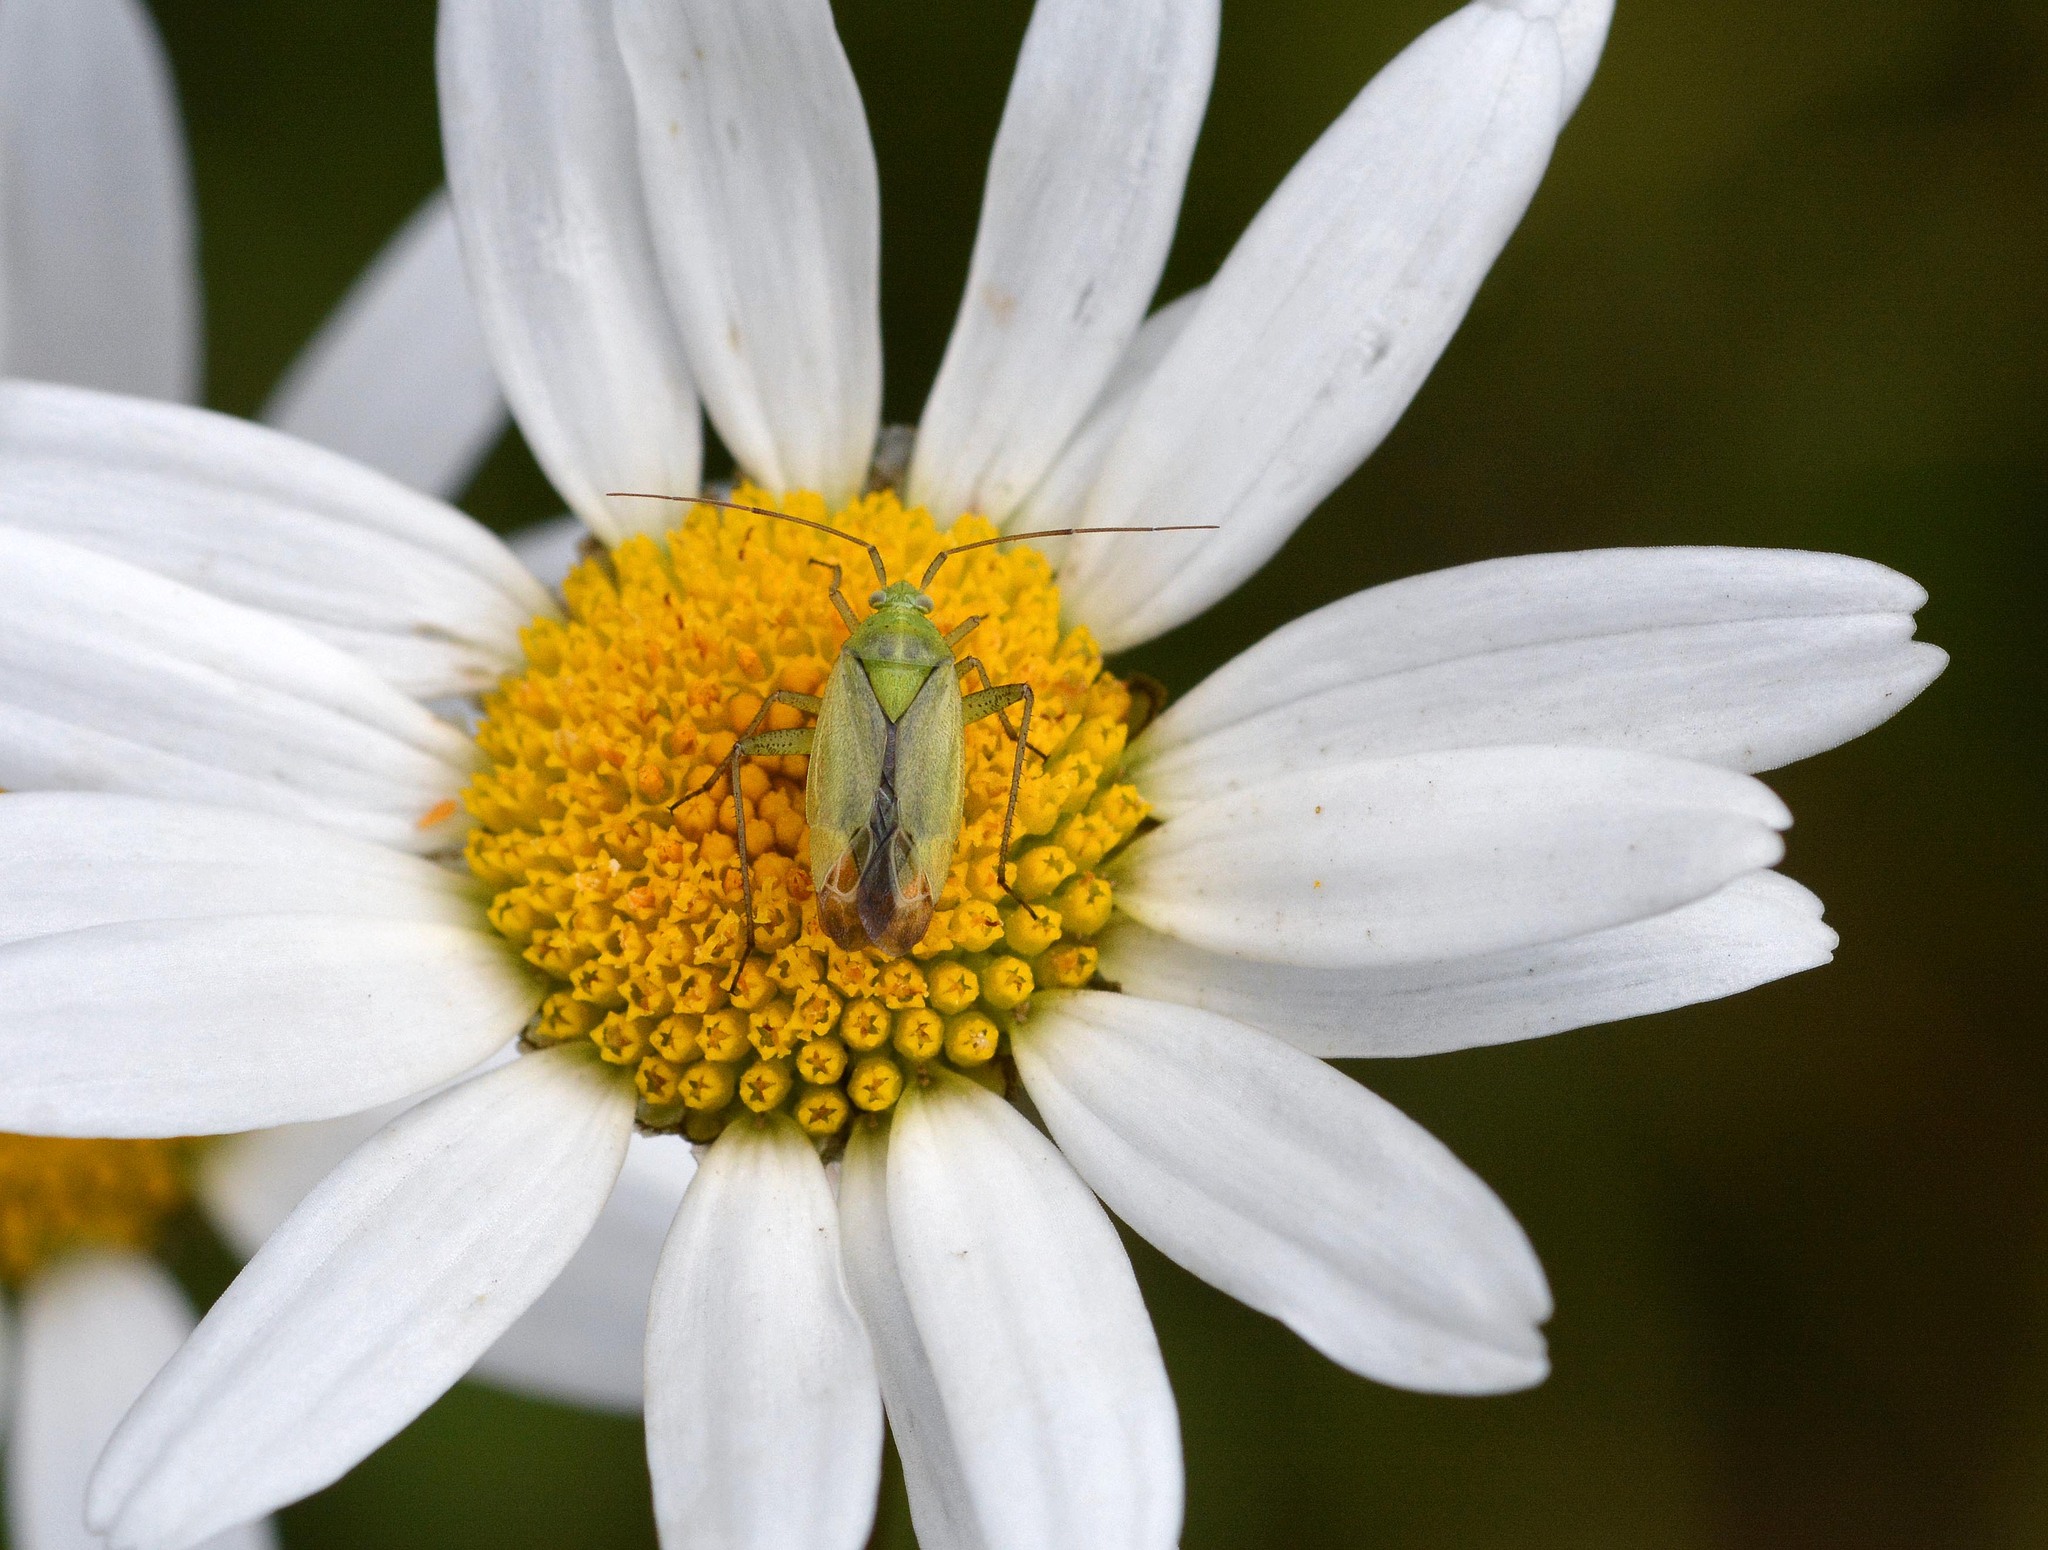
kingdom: Animalia
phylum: Arthropoda
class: Insecta
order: Hemiptera
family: Miridae
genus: Closterotomus
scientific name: Closterotomus norvegicus
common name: Plant bug
